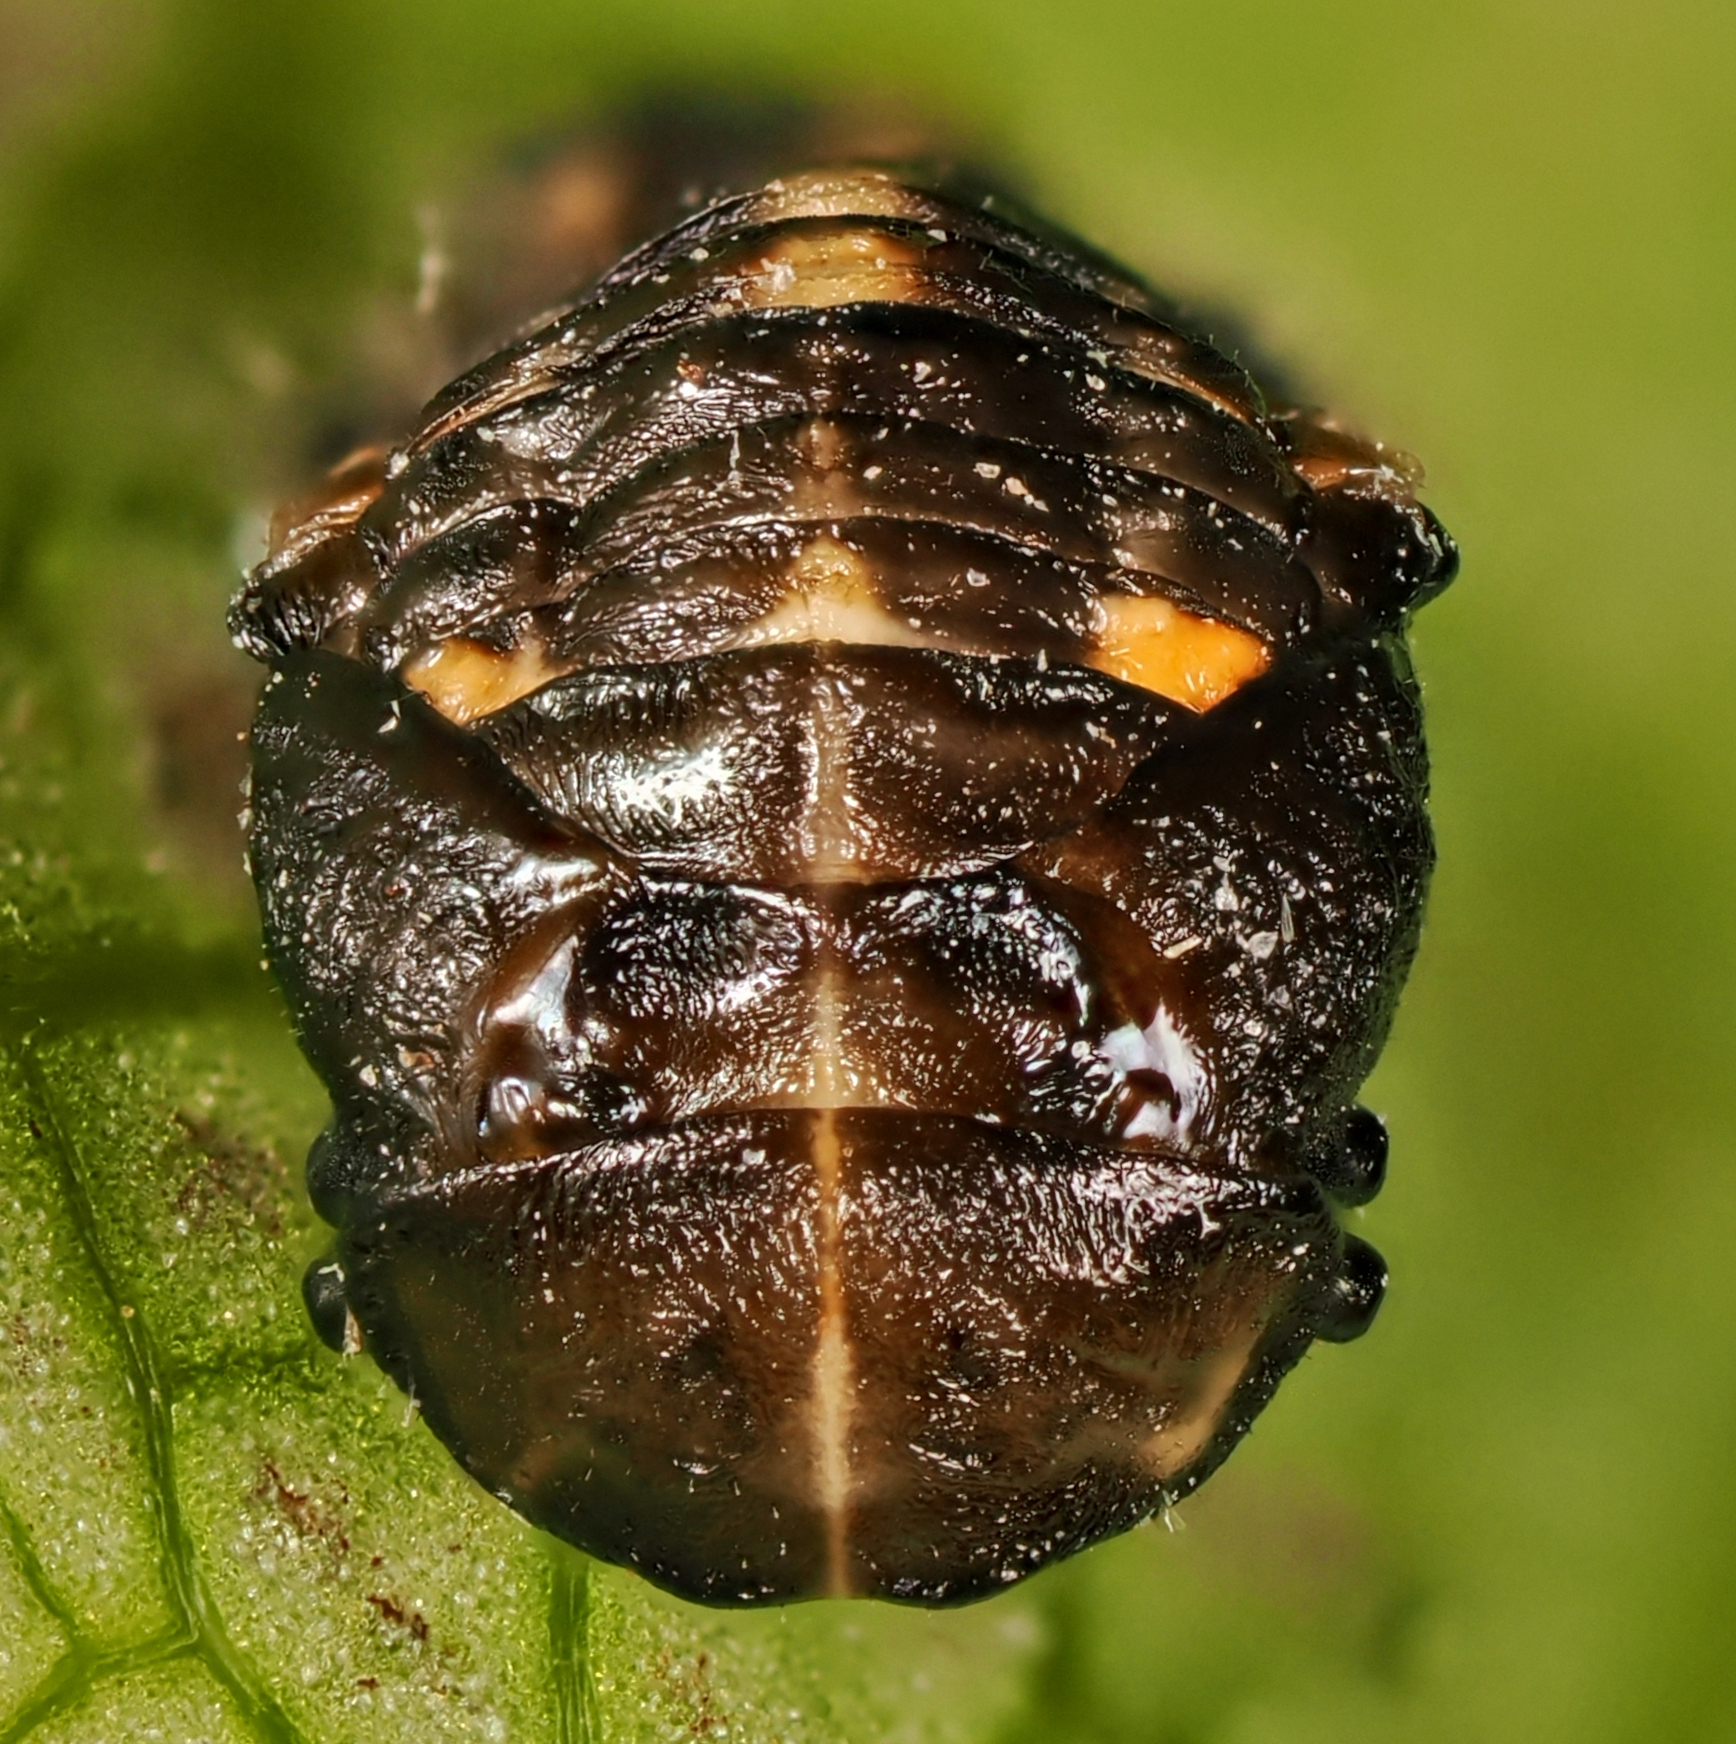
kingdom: Animalia
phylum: Arthropoda
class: Insecta
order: Coleoptera
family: Coccinellidae
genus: Ceratomegilla
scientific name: Ceratomegilla alpina
